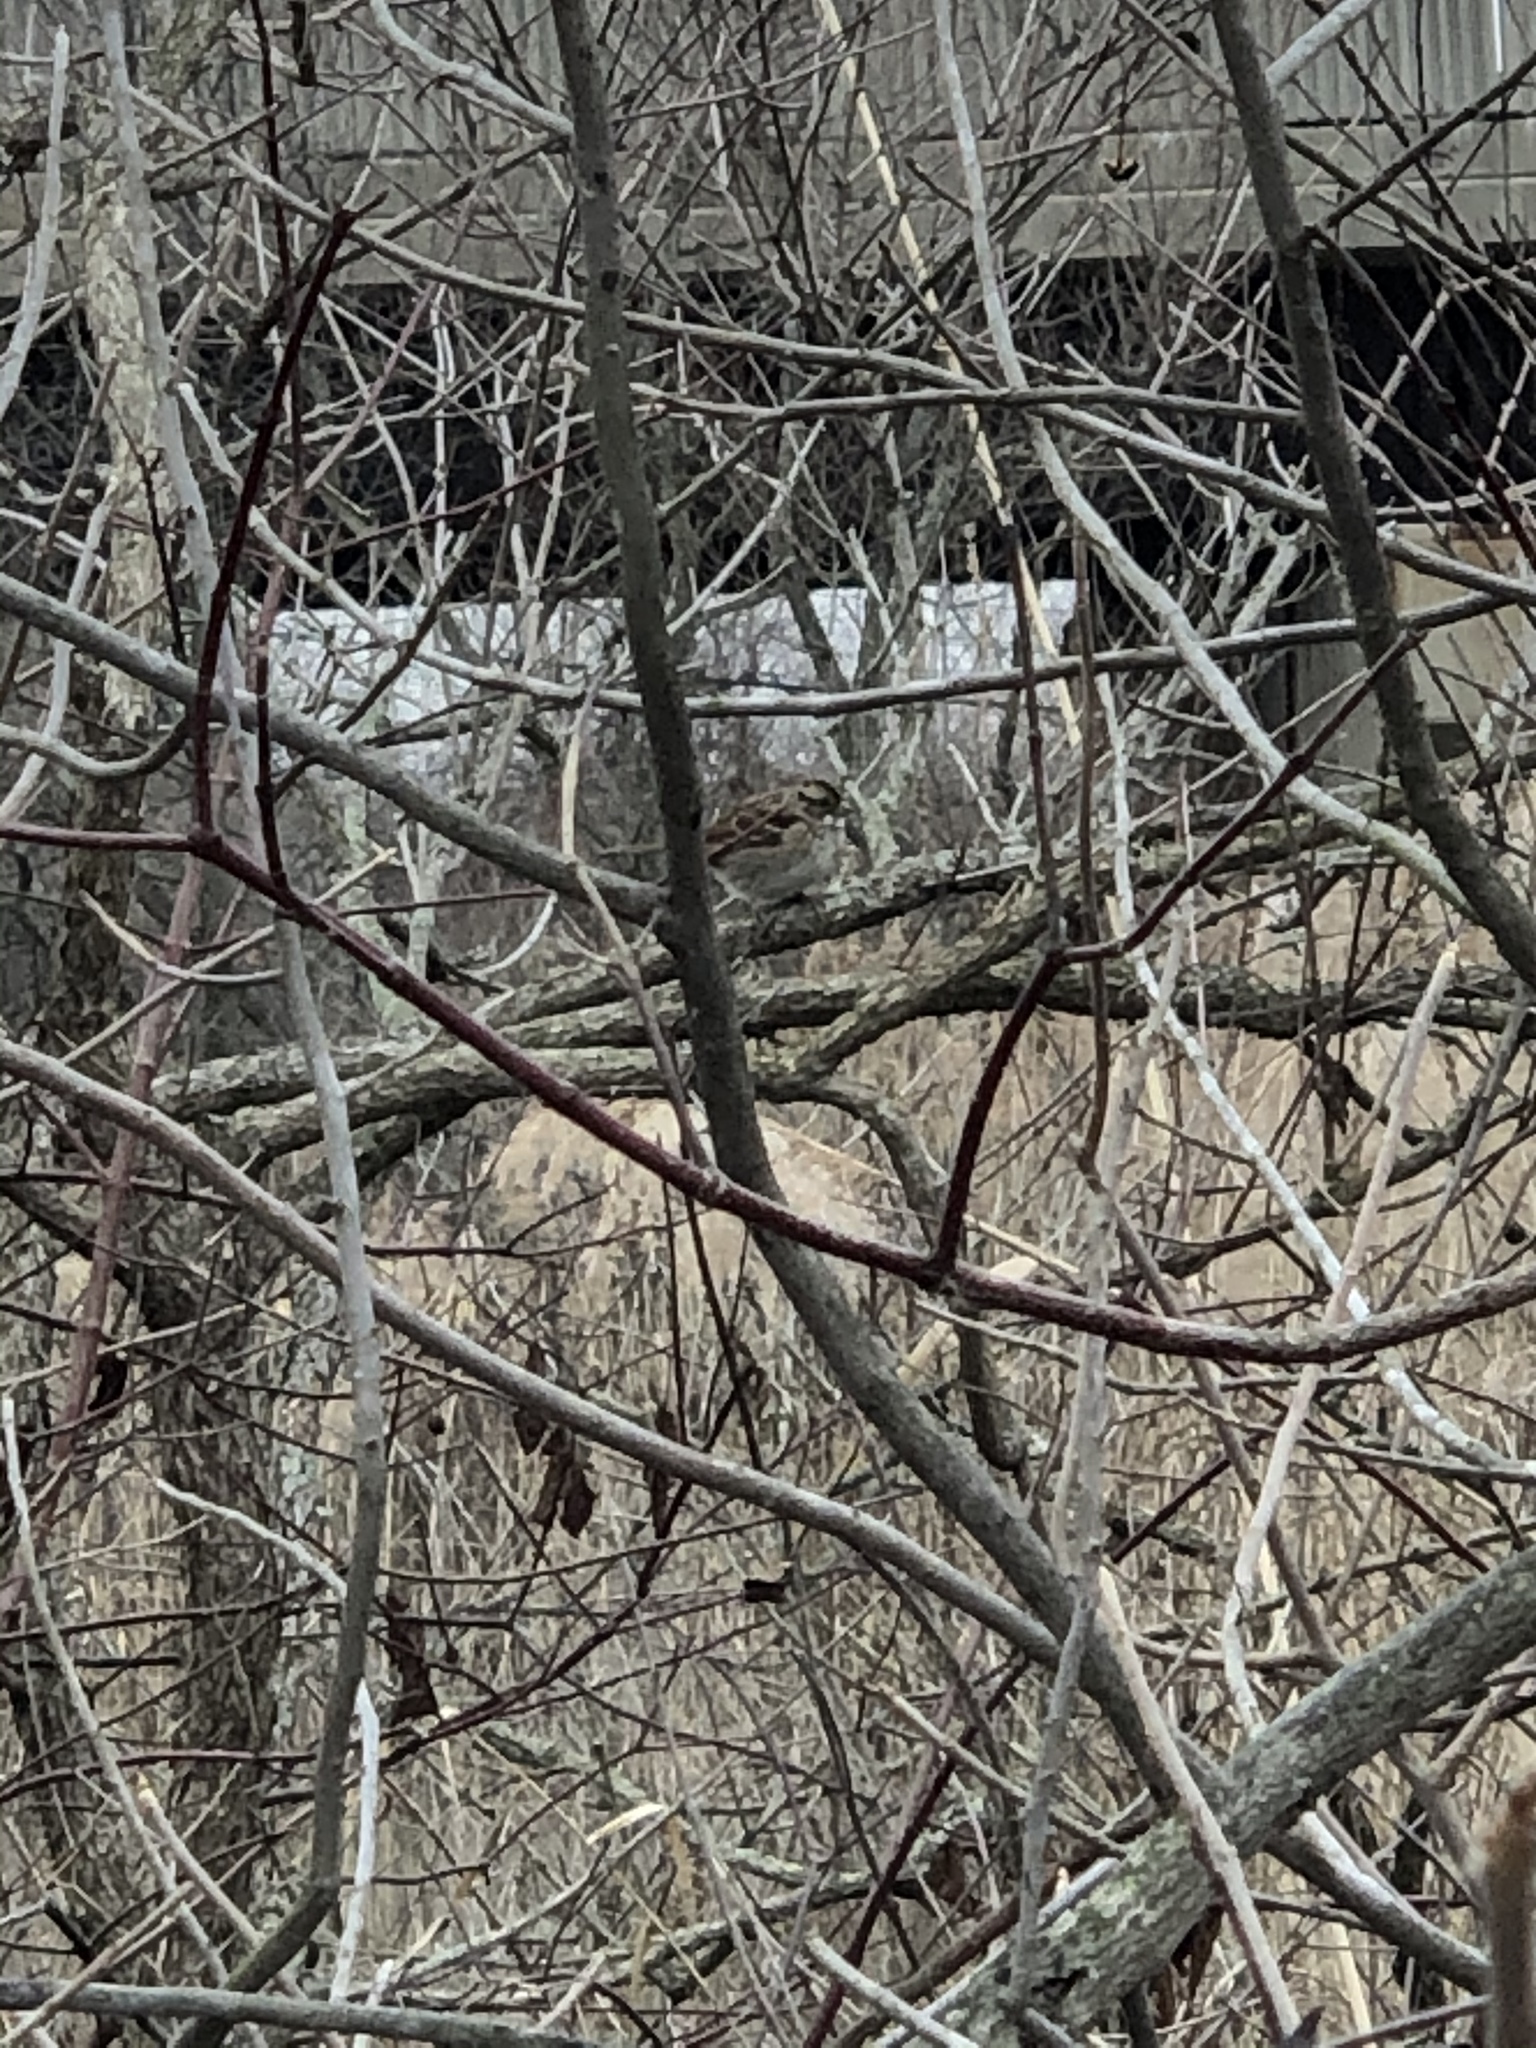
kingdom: Animalia
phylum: Chordata
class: Aves
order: Passeriformes
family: Passerellidae
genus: Zonotrichia
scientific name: Zonotrichia albicollis
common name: White-throated sparrow
